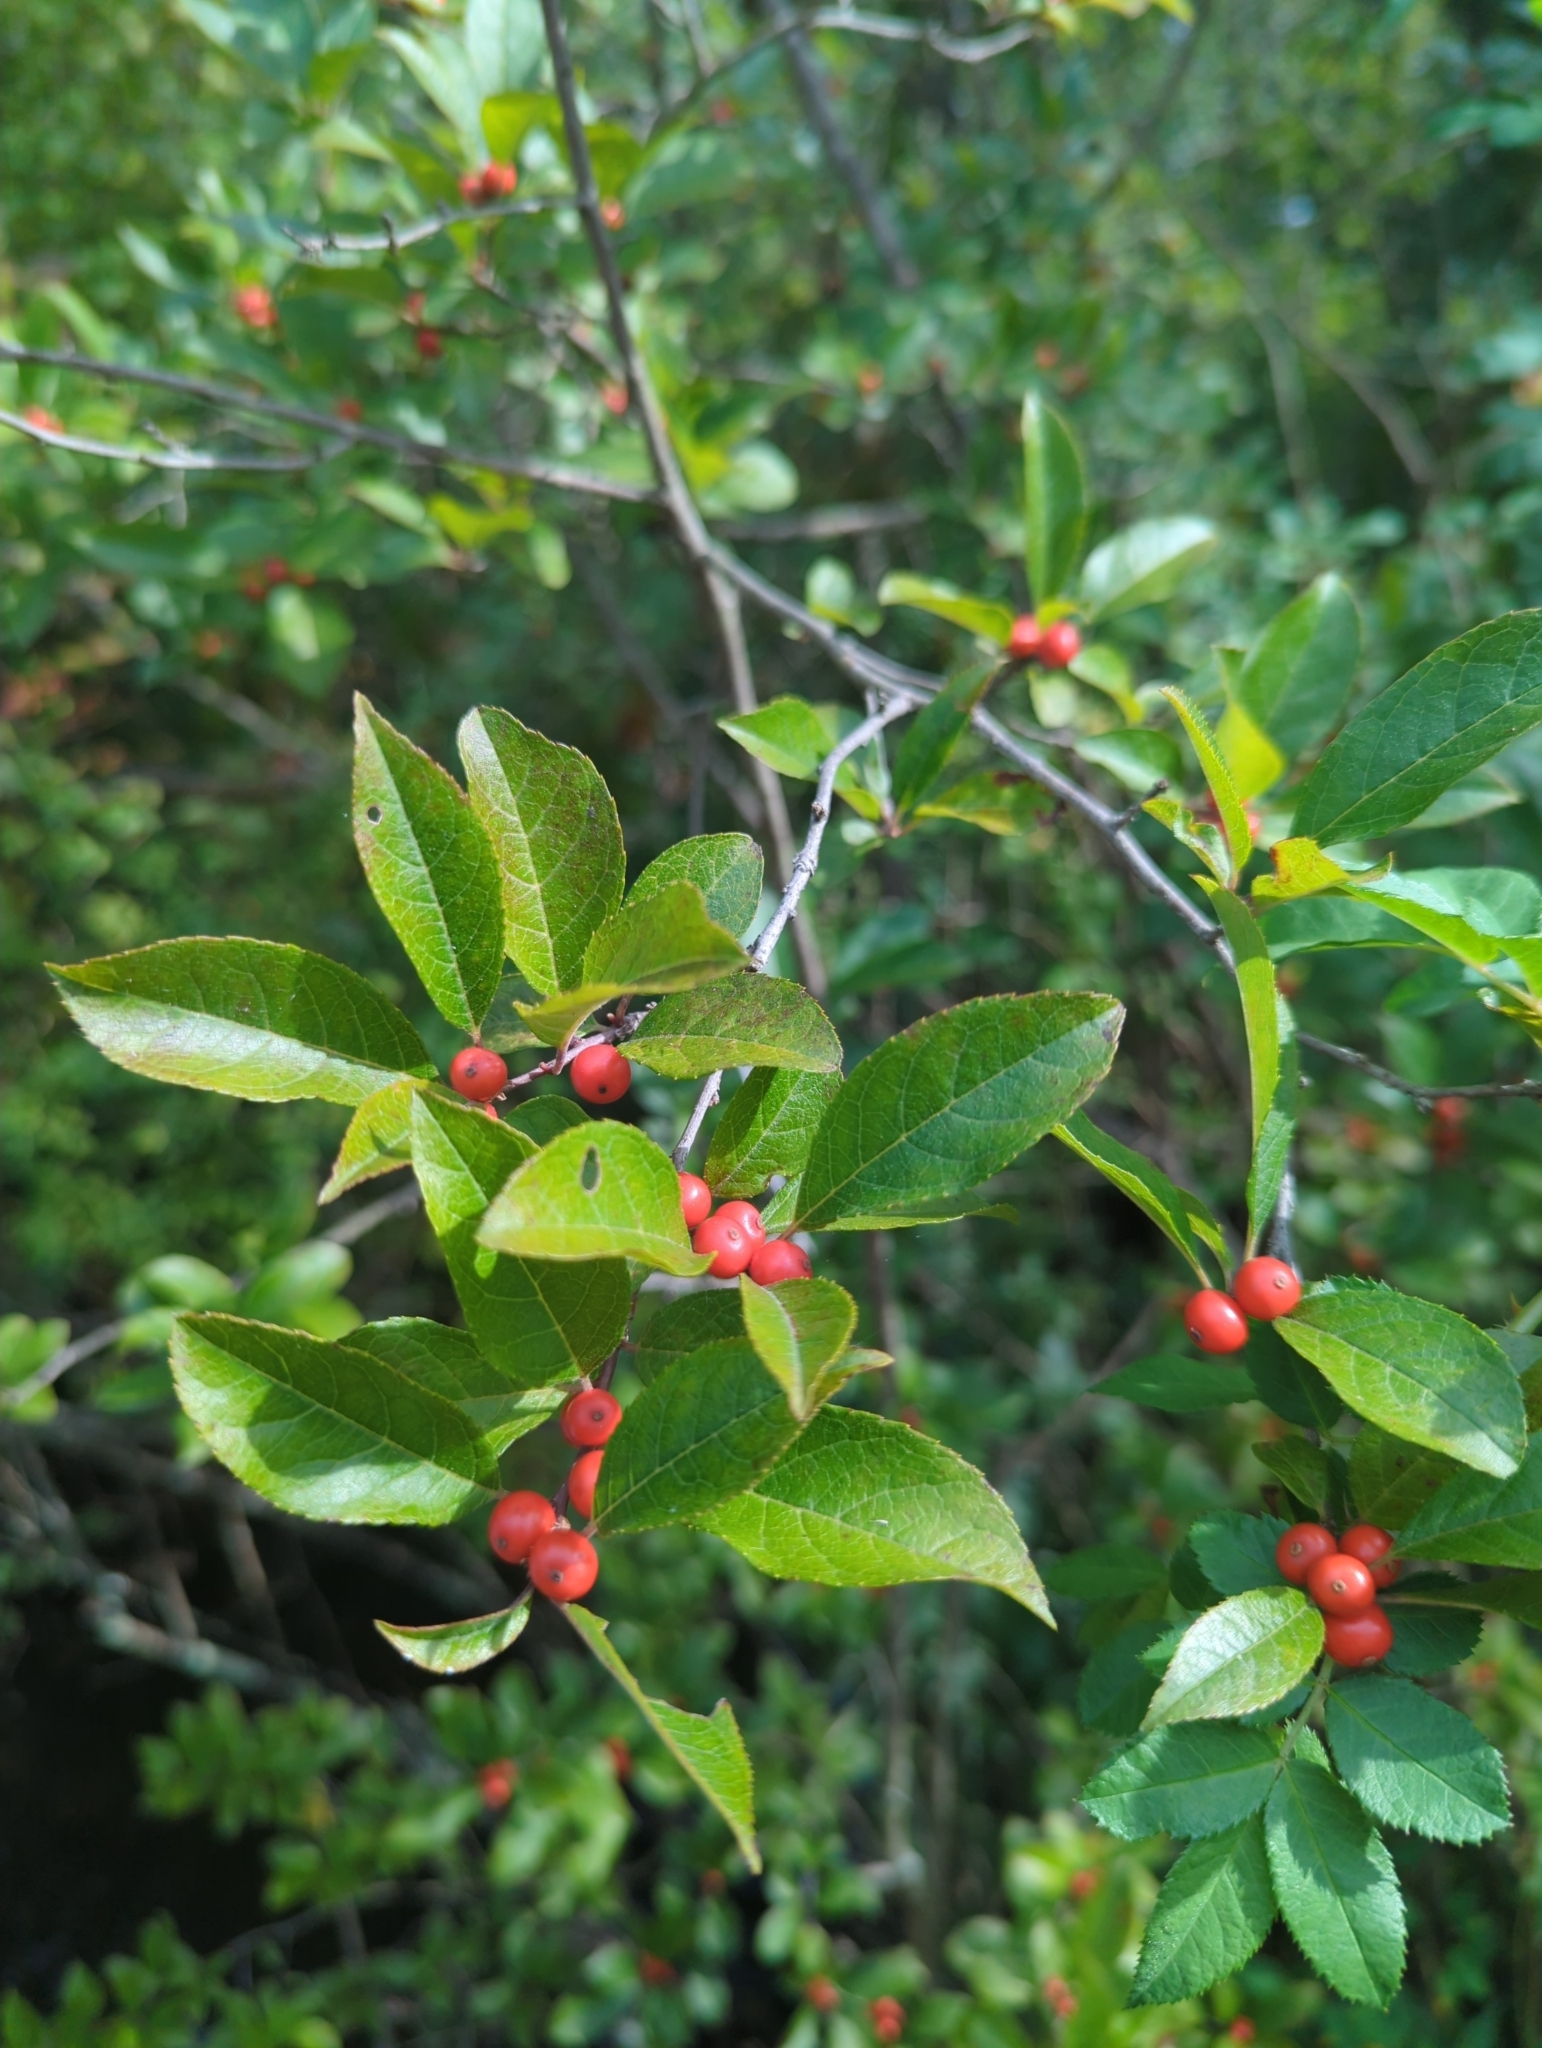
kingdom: Plantae
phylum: Tracheophyta
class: Magnoliopsida
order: Aquifoliales
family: Aquifoliaceae
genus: Ilex
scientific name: Ilex verticillata
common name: Virginia winterberry
